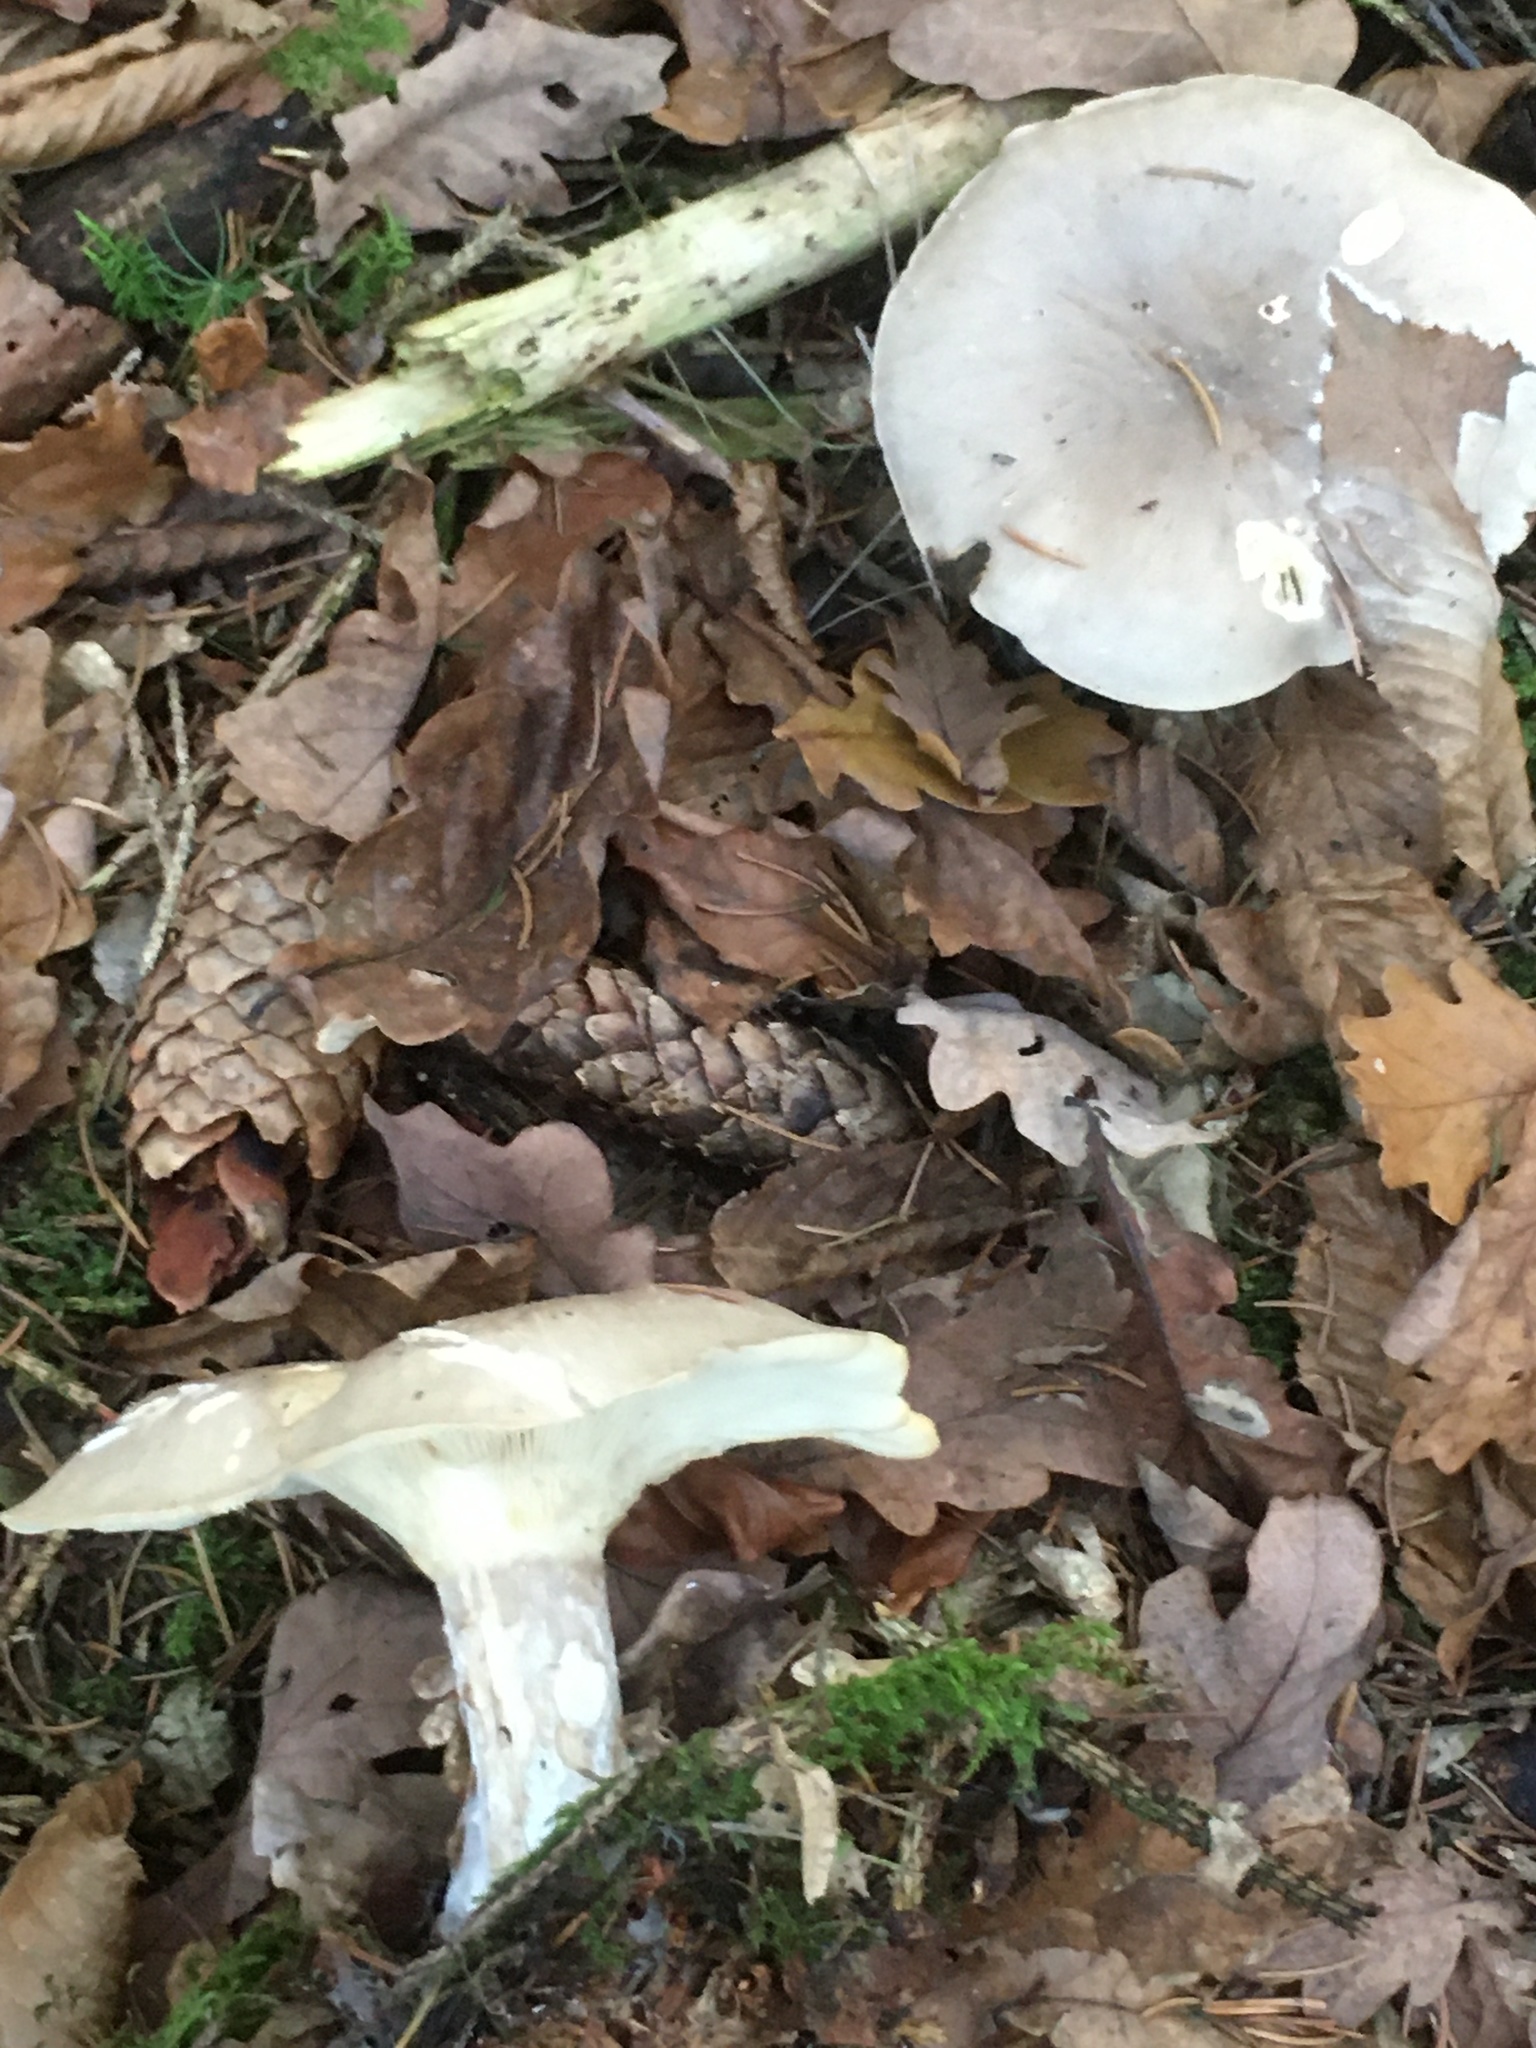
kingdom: Fungi
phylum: Basidiomycota
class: Agaricomycetes
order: Agaricales
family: Tricholomataceae
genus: Clitocybe
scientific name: Clitocybe nebularis
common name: Clouded agaric
